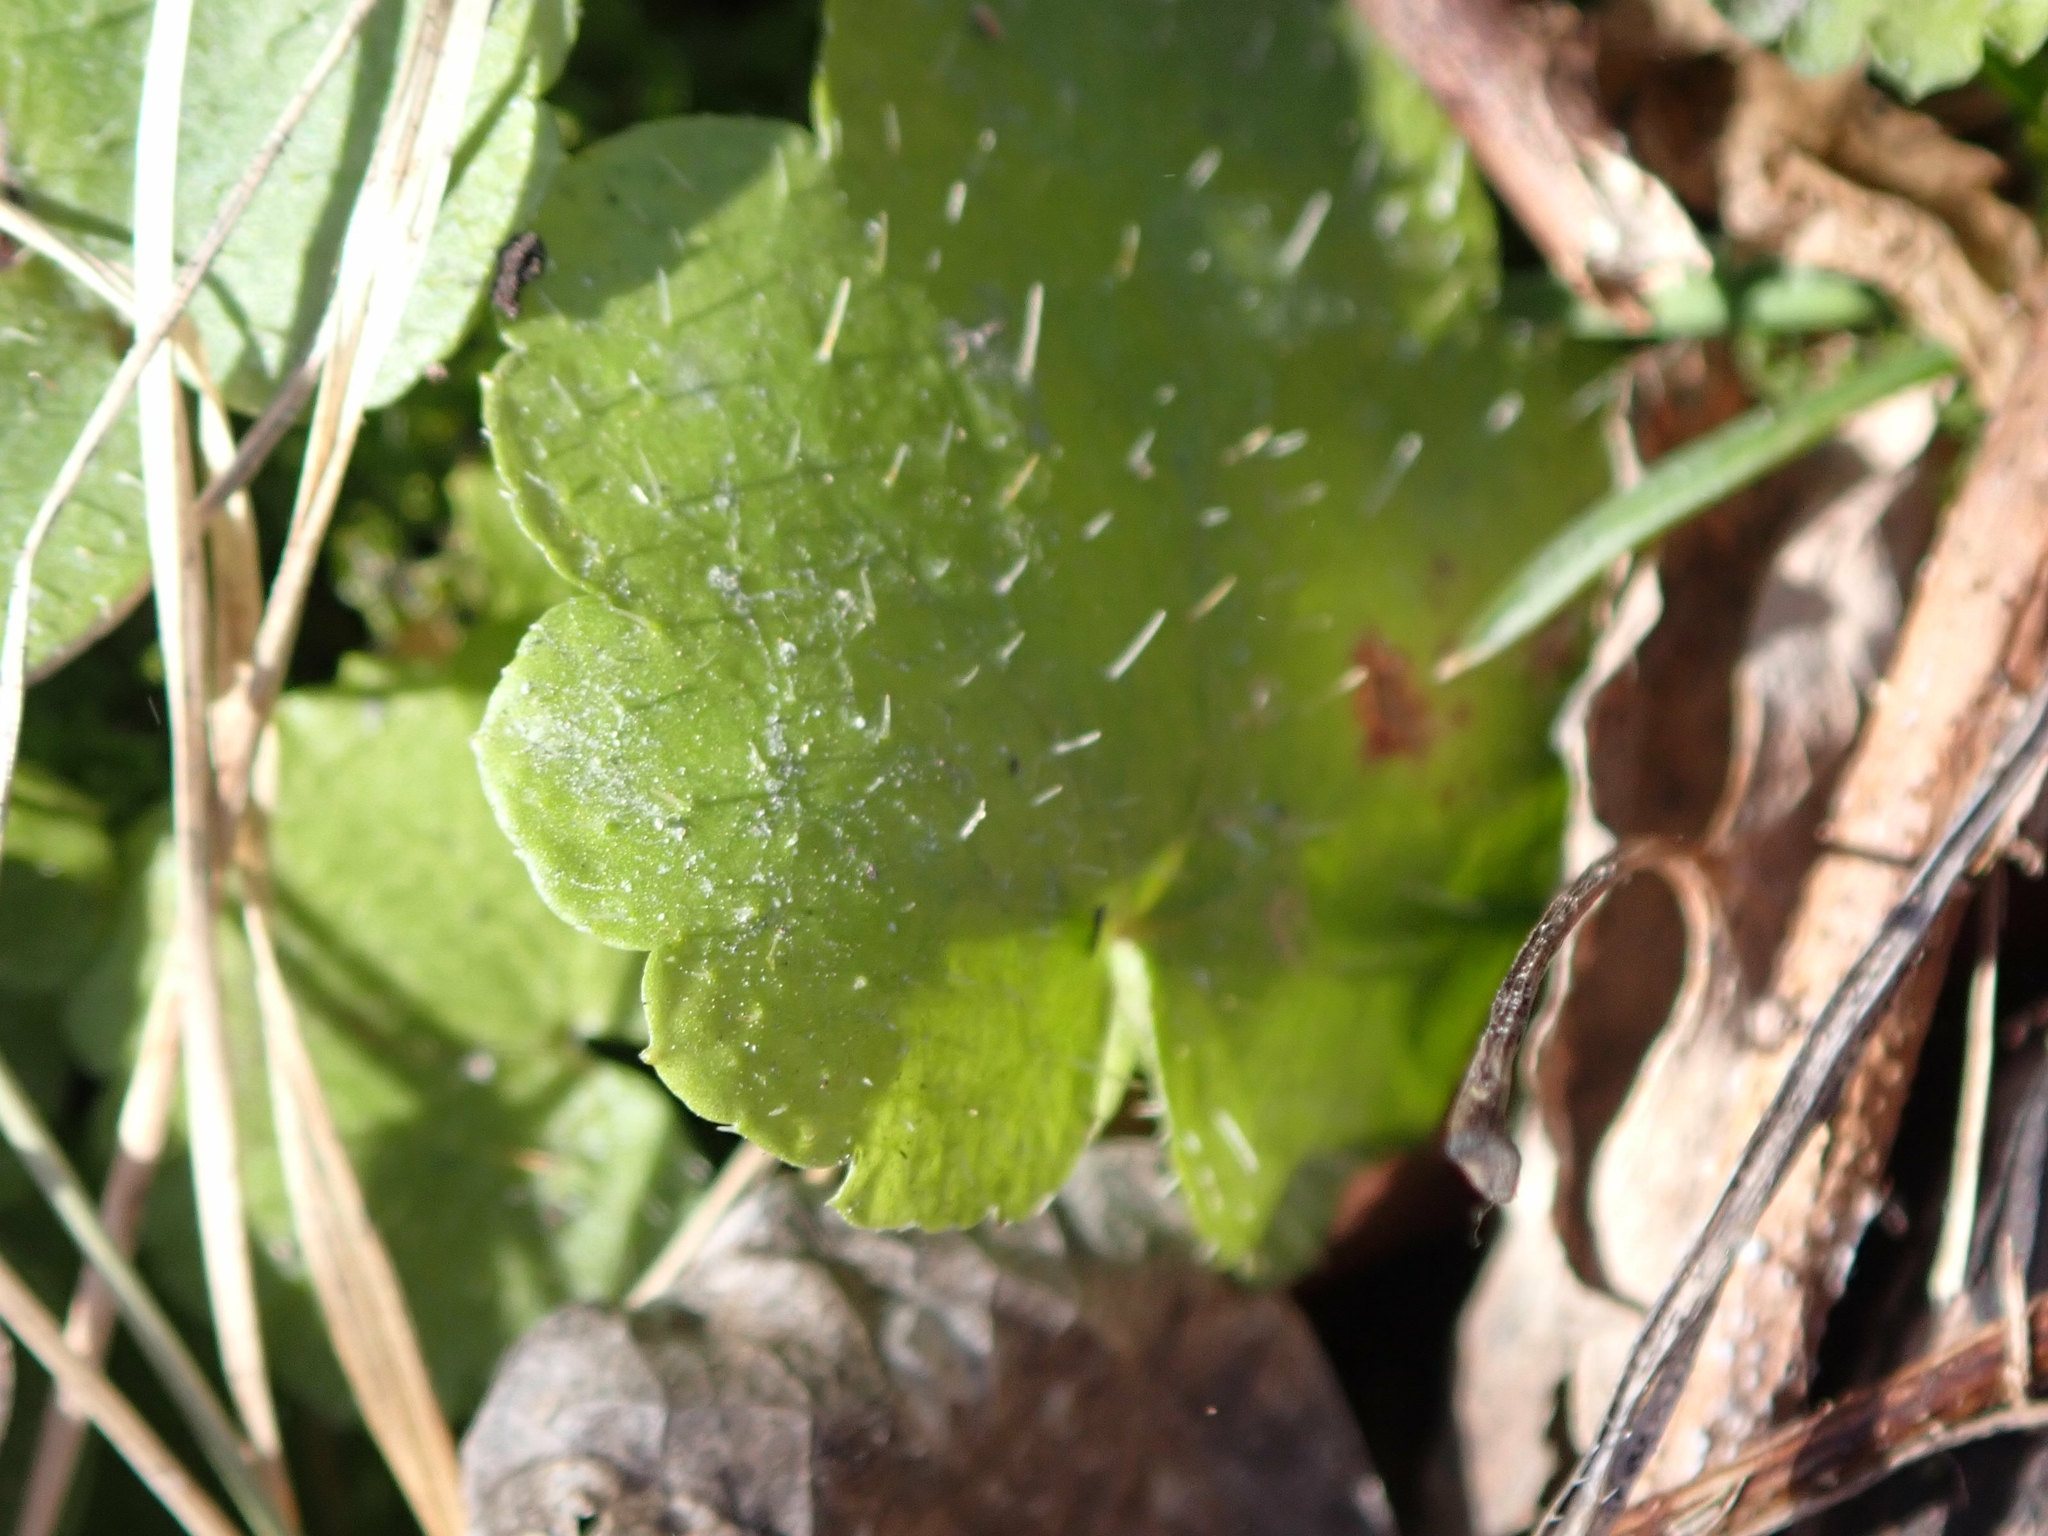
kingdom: Plantae
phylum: Tracheophyta
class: Magnoliopsida
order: Saxifragales
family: Saxifragaceae
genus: Mitella
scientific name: Mitella nuda
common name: Bare-stemmed bishop's-cap
